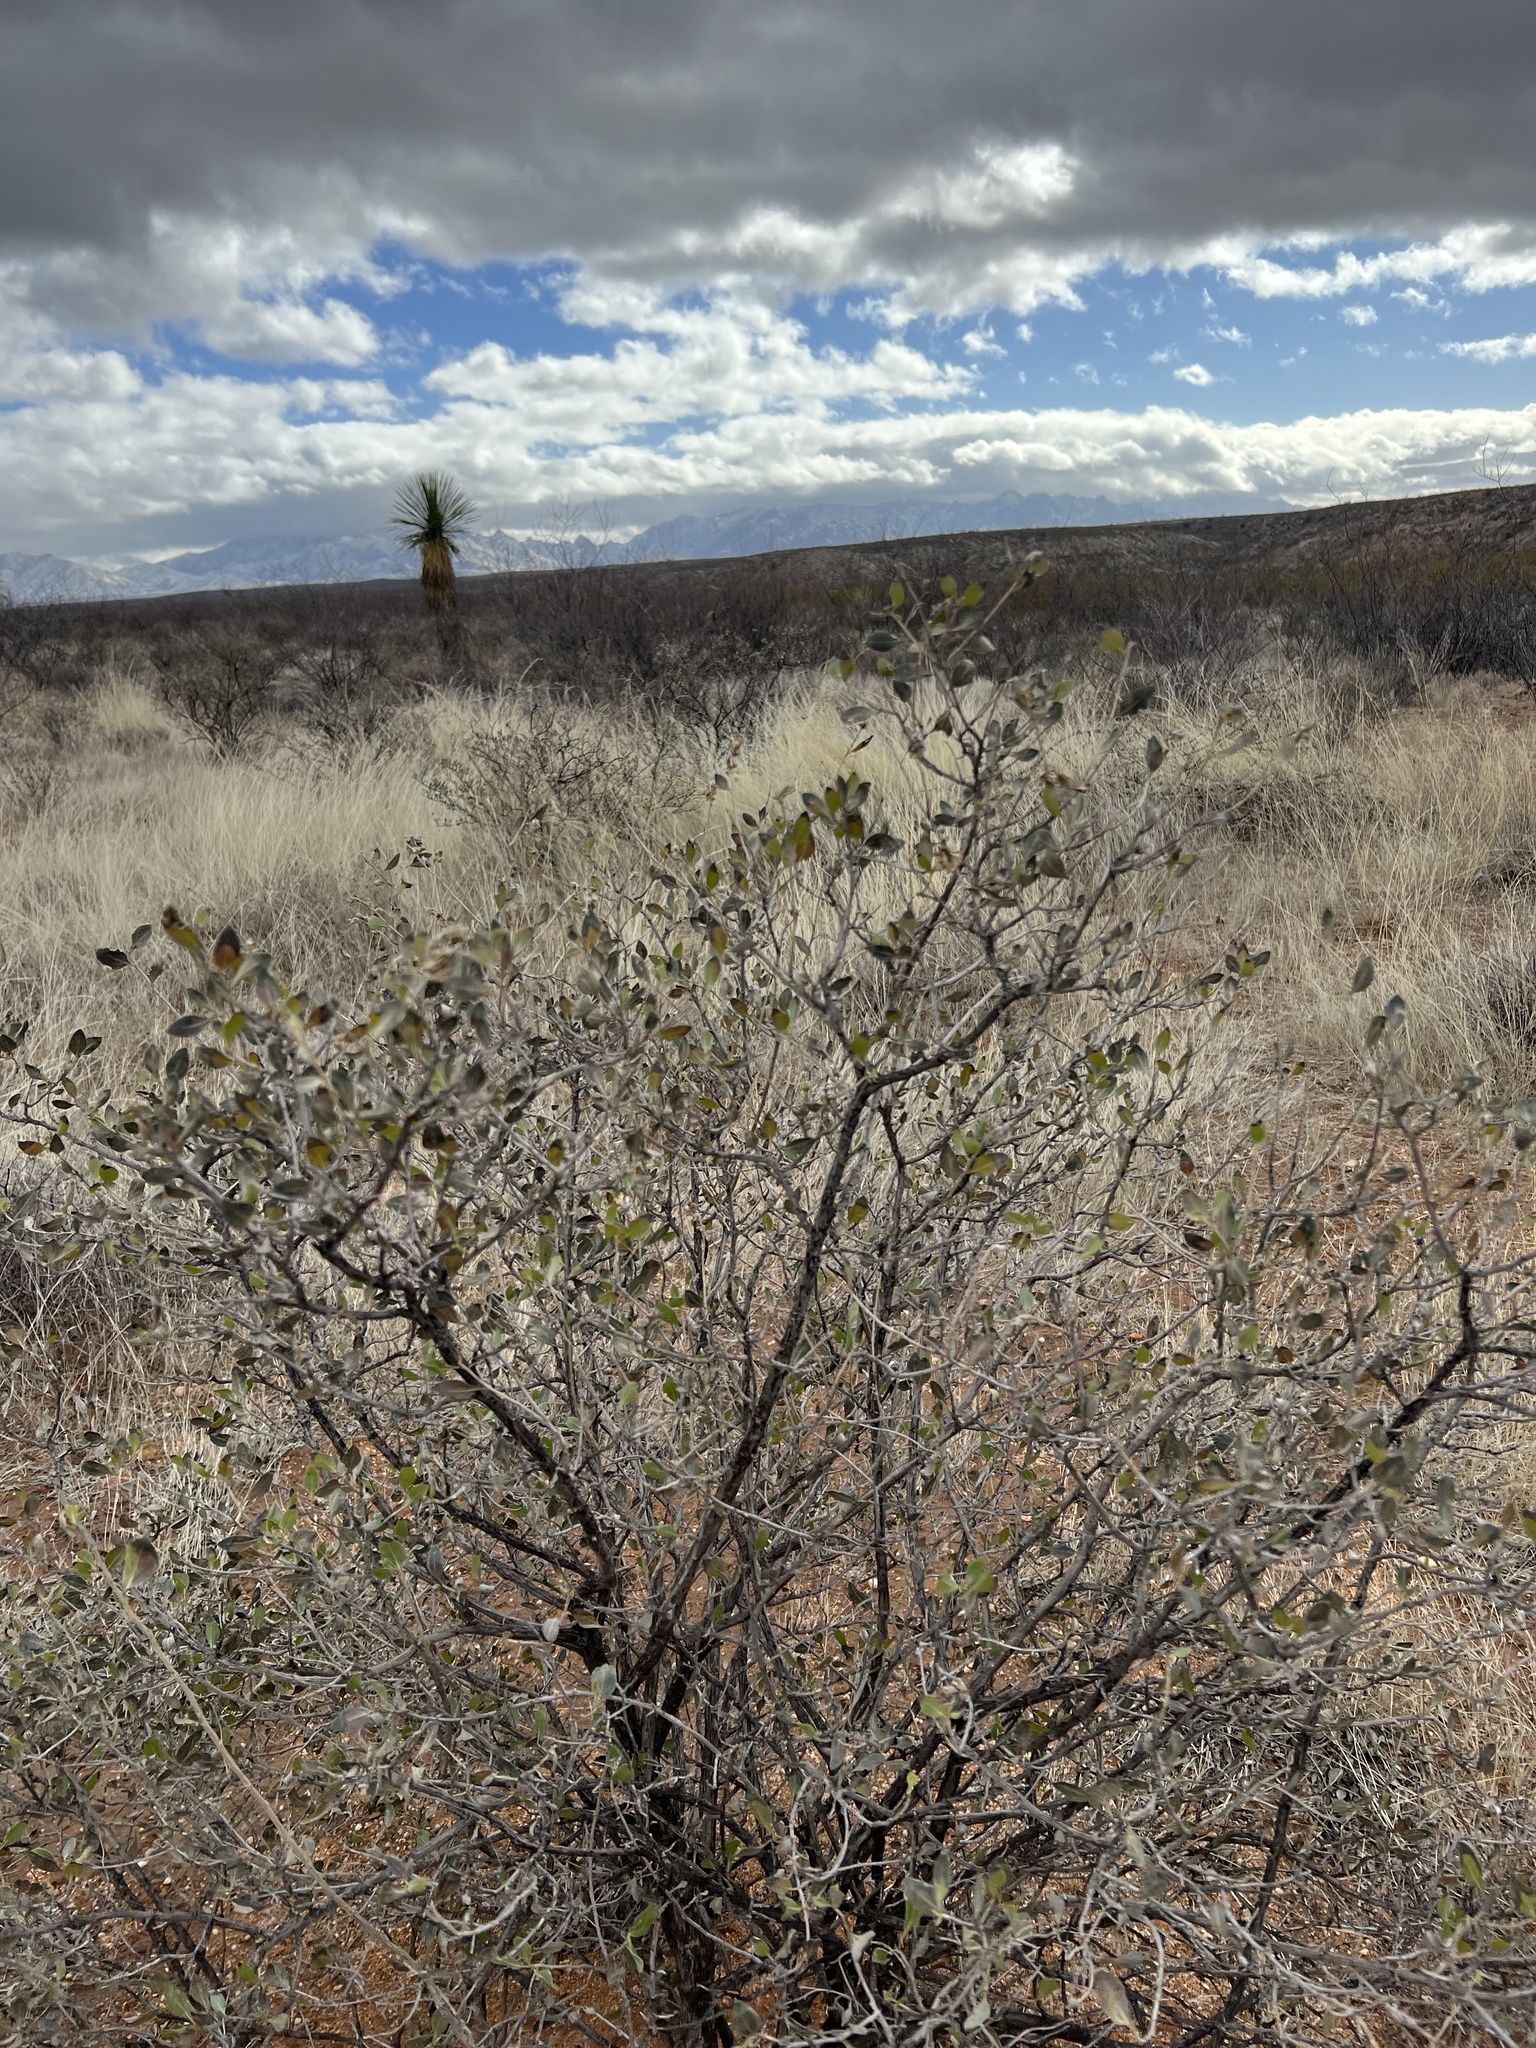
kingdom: Plantae
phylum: Tracheophyta
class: Magnoliopsida
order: Asterales
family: Asteraceae
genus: Flourensia
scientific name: Flourensia cernua
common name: Varnishbush
